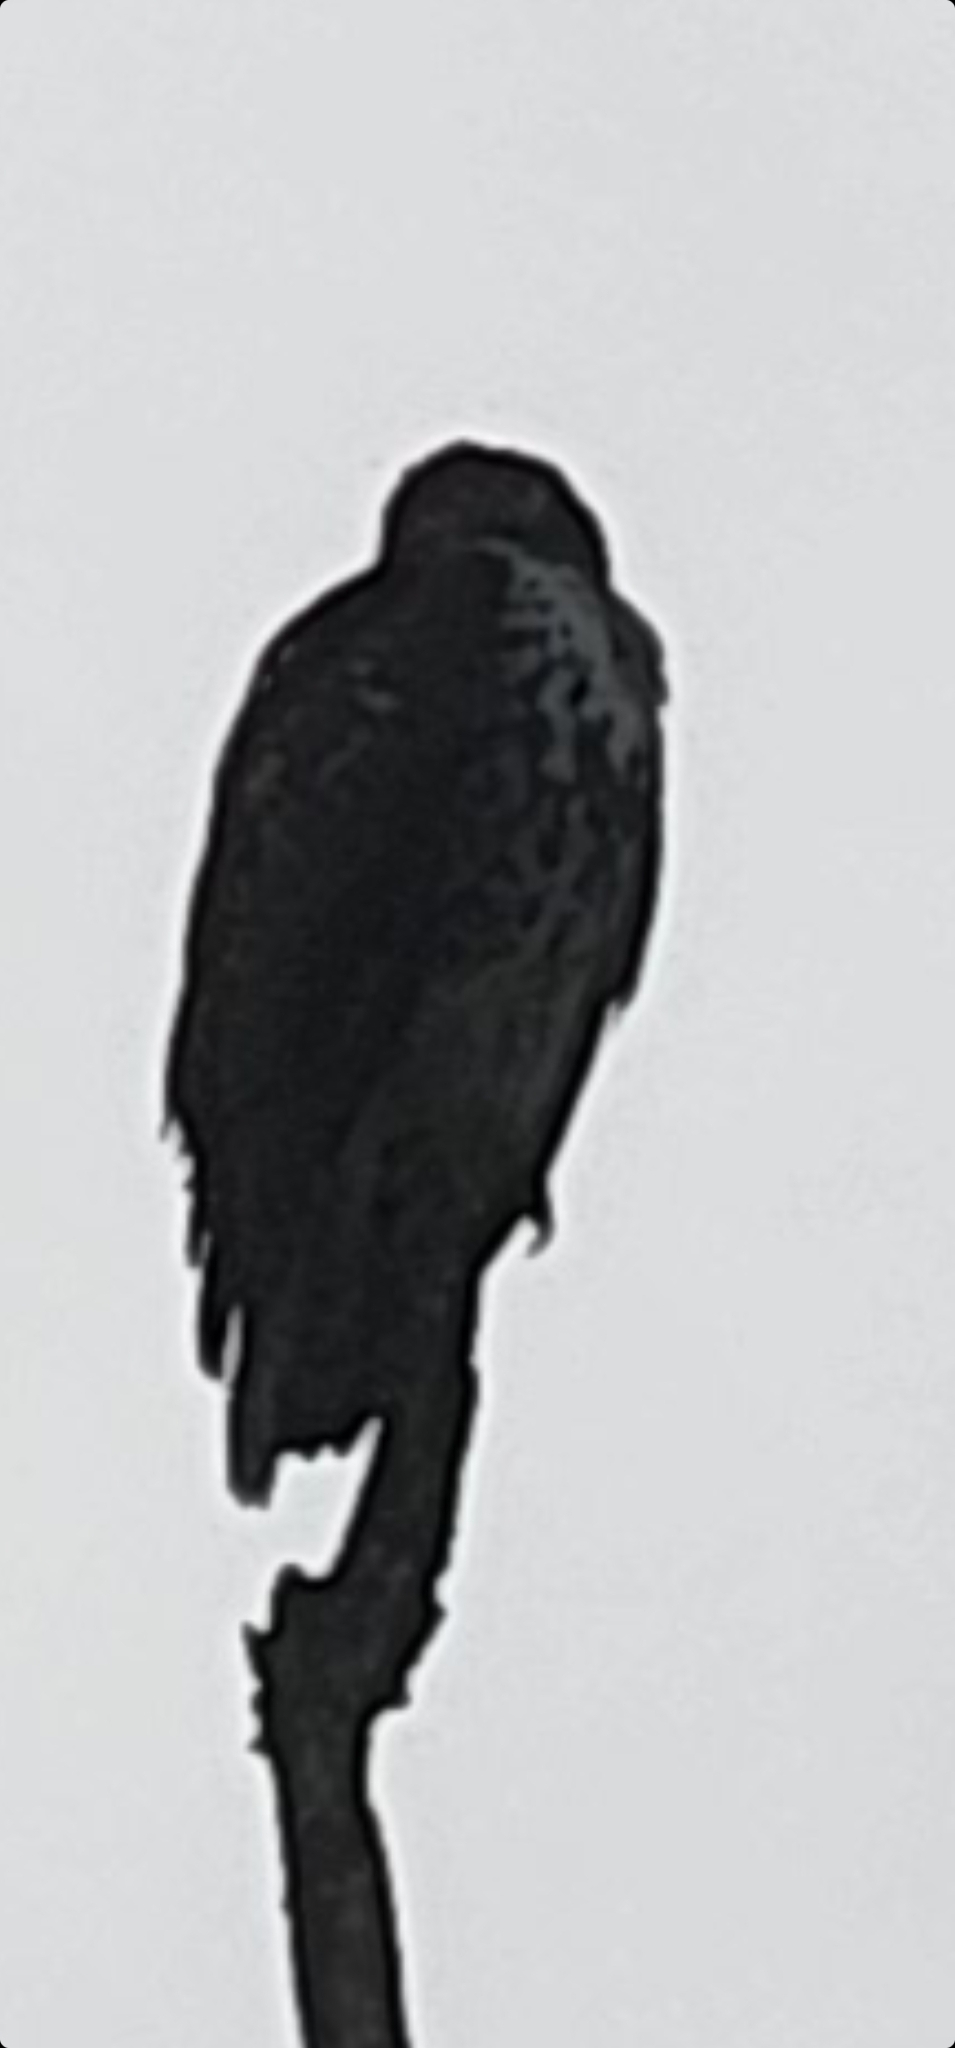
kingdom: Animalia
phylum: Chordata
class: Aves
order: Accipitriformes
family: Accipitridae
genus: Buteo
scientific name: Buteo jamaicensis
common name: Red-tailed hawk
